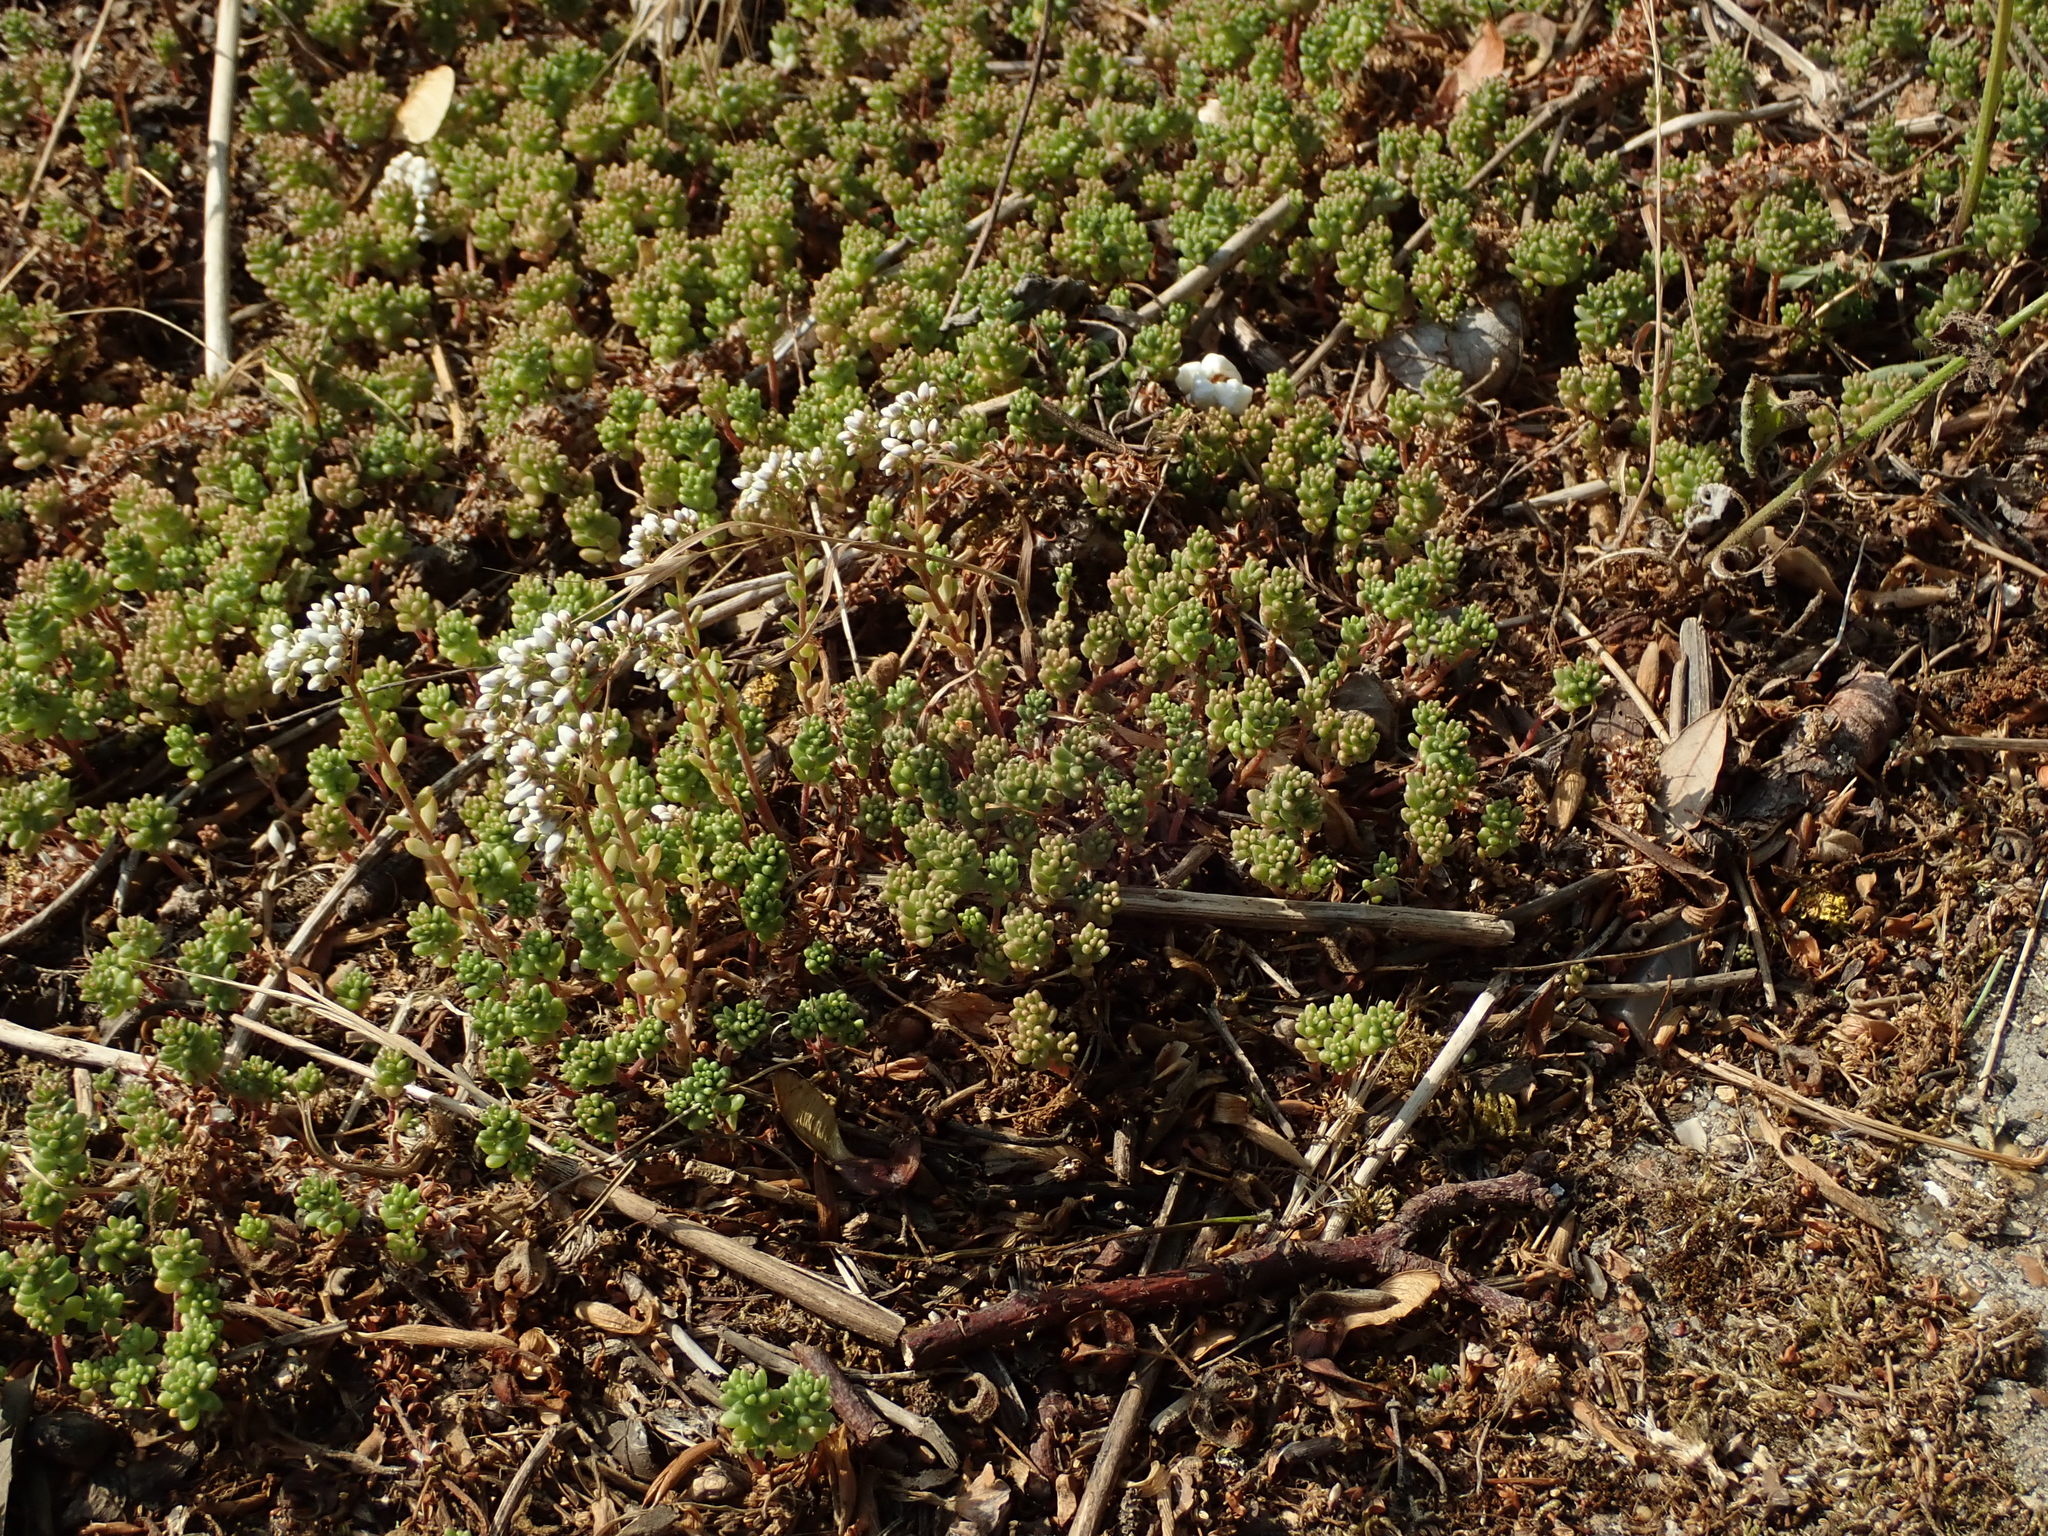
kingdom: Plantae
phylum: Tracheophyta
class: Magnoliopsida
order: Saxifragales
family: Crassulaceae
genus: Sedum
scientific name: Sedum album
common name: White stonecrop
